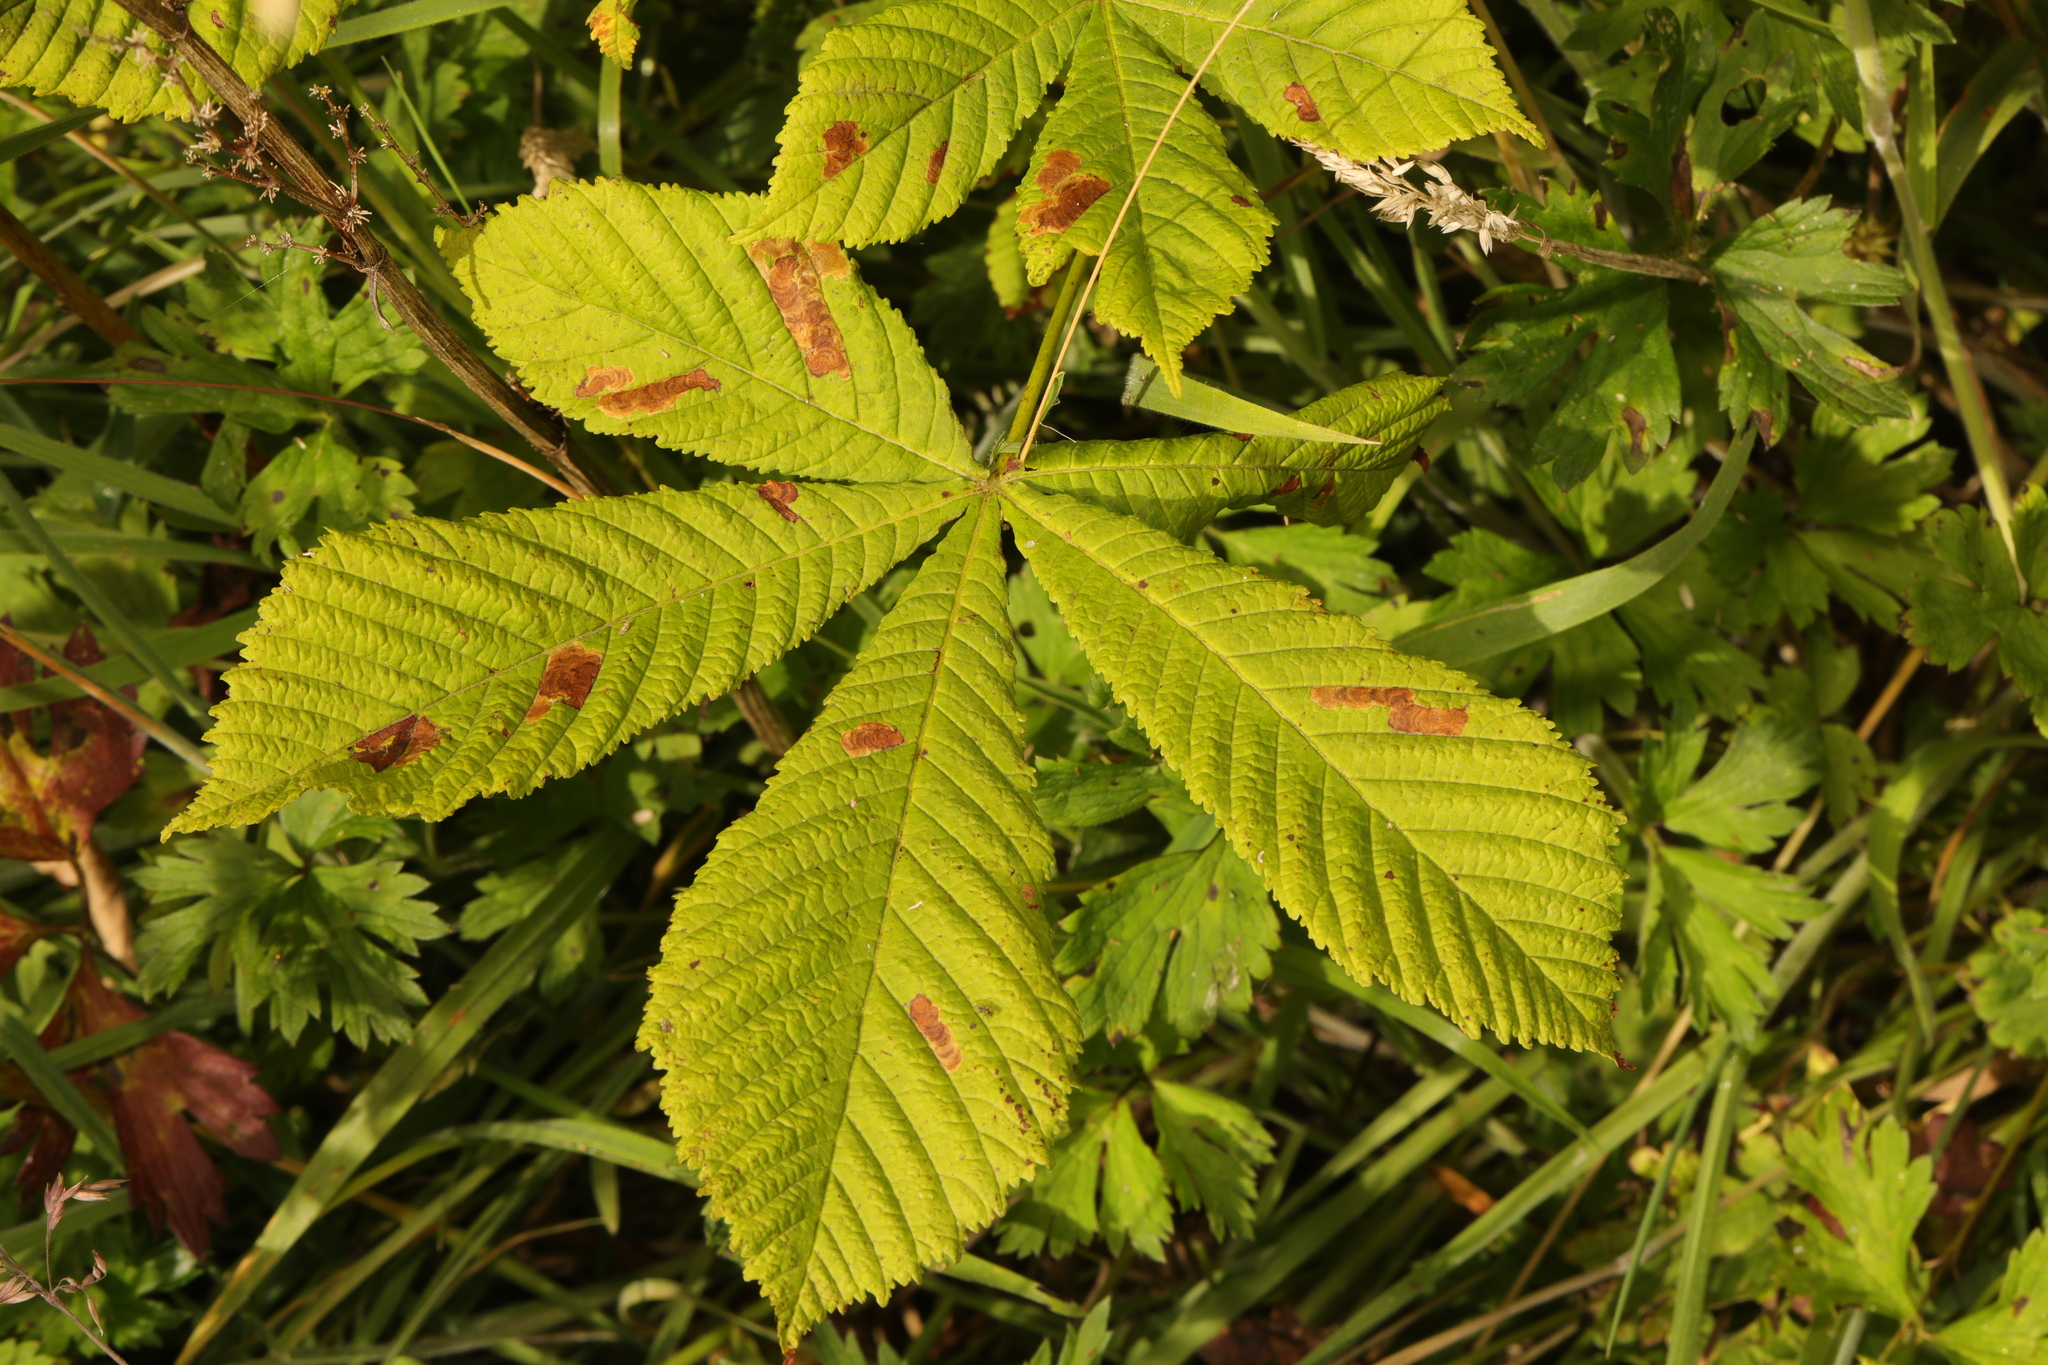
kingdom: Plantae
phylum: Tracheophyta
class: Magnoliopsida
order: Sapindales
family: Sapindaceae
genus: Aesculus
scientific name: Aesculus hippocastanum
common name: Horse-chestnut
